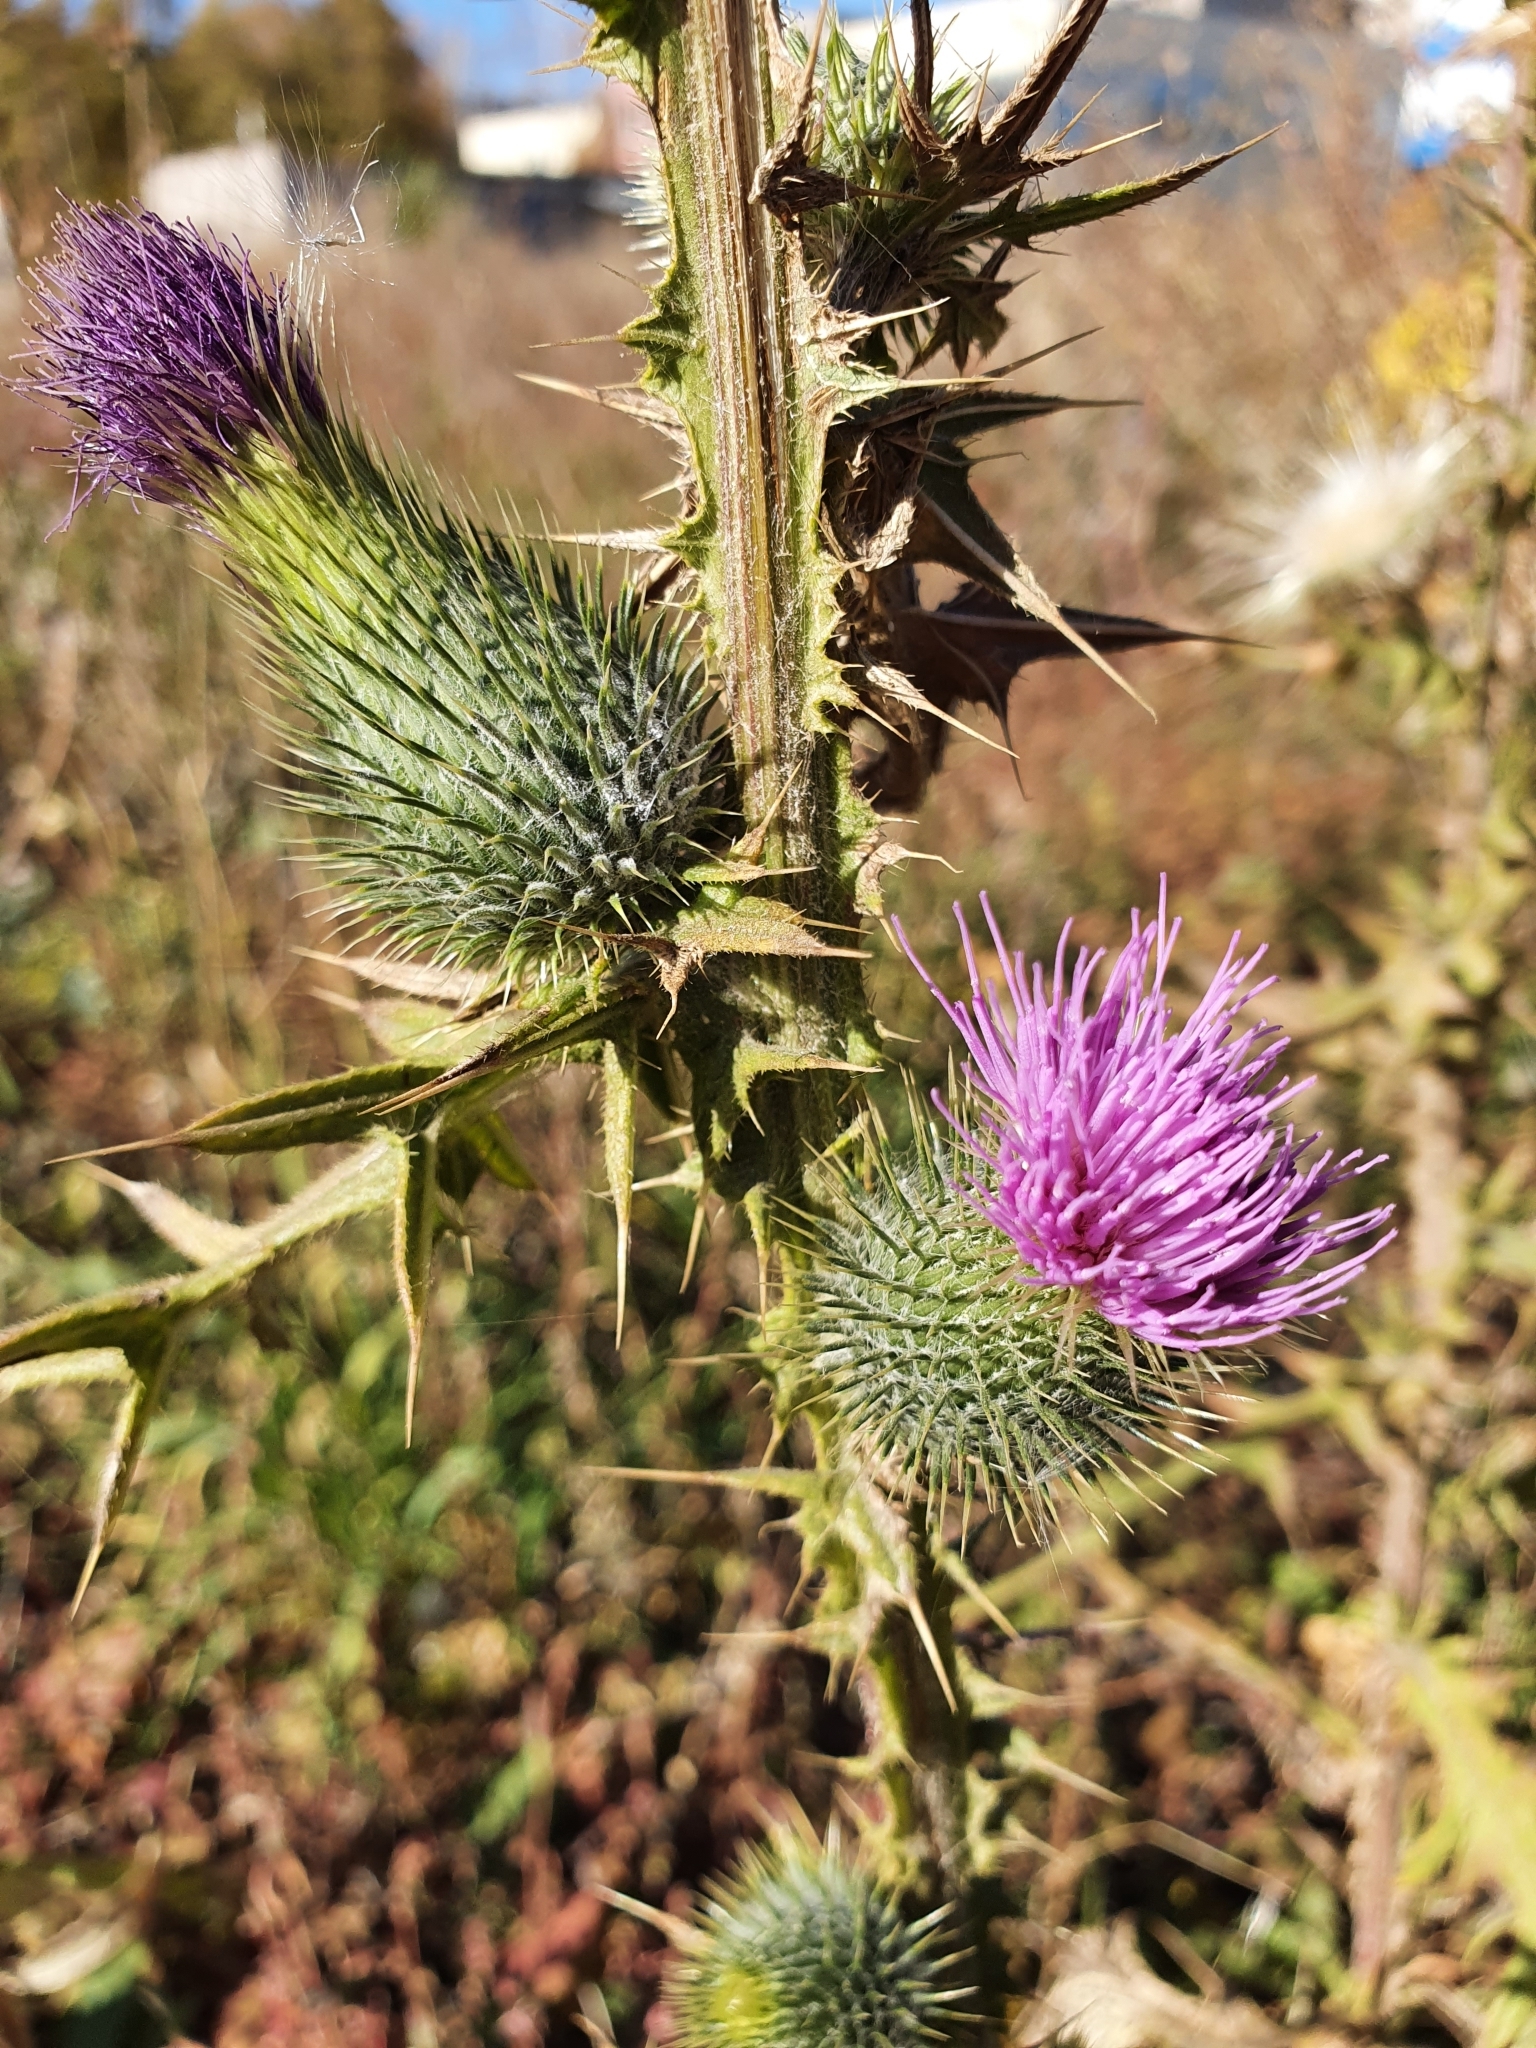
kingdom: Plantae
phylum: Tracheophyta
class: Magnoliopsida
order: Asterales
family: Asteraceae
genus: Cirsium
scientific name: Cirsium vulgare
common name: Bull thistle
